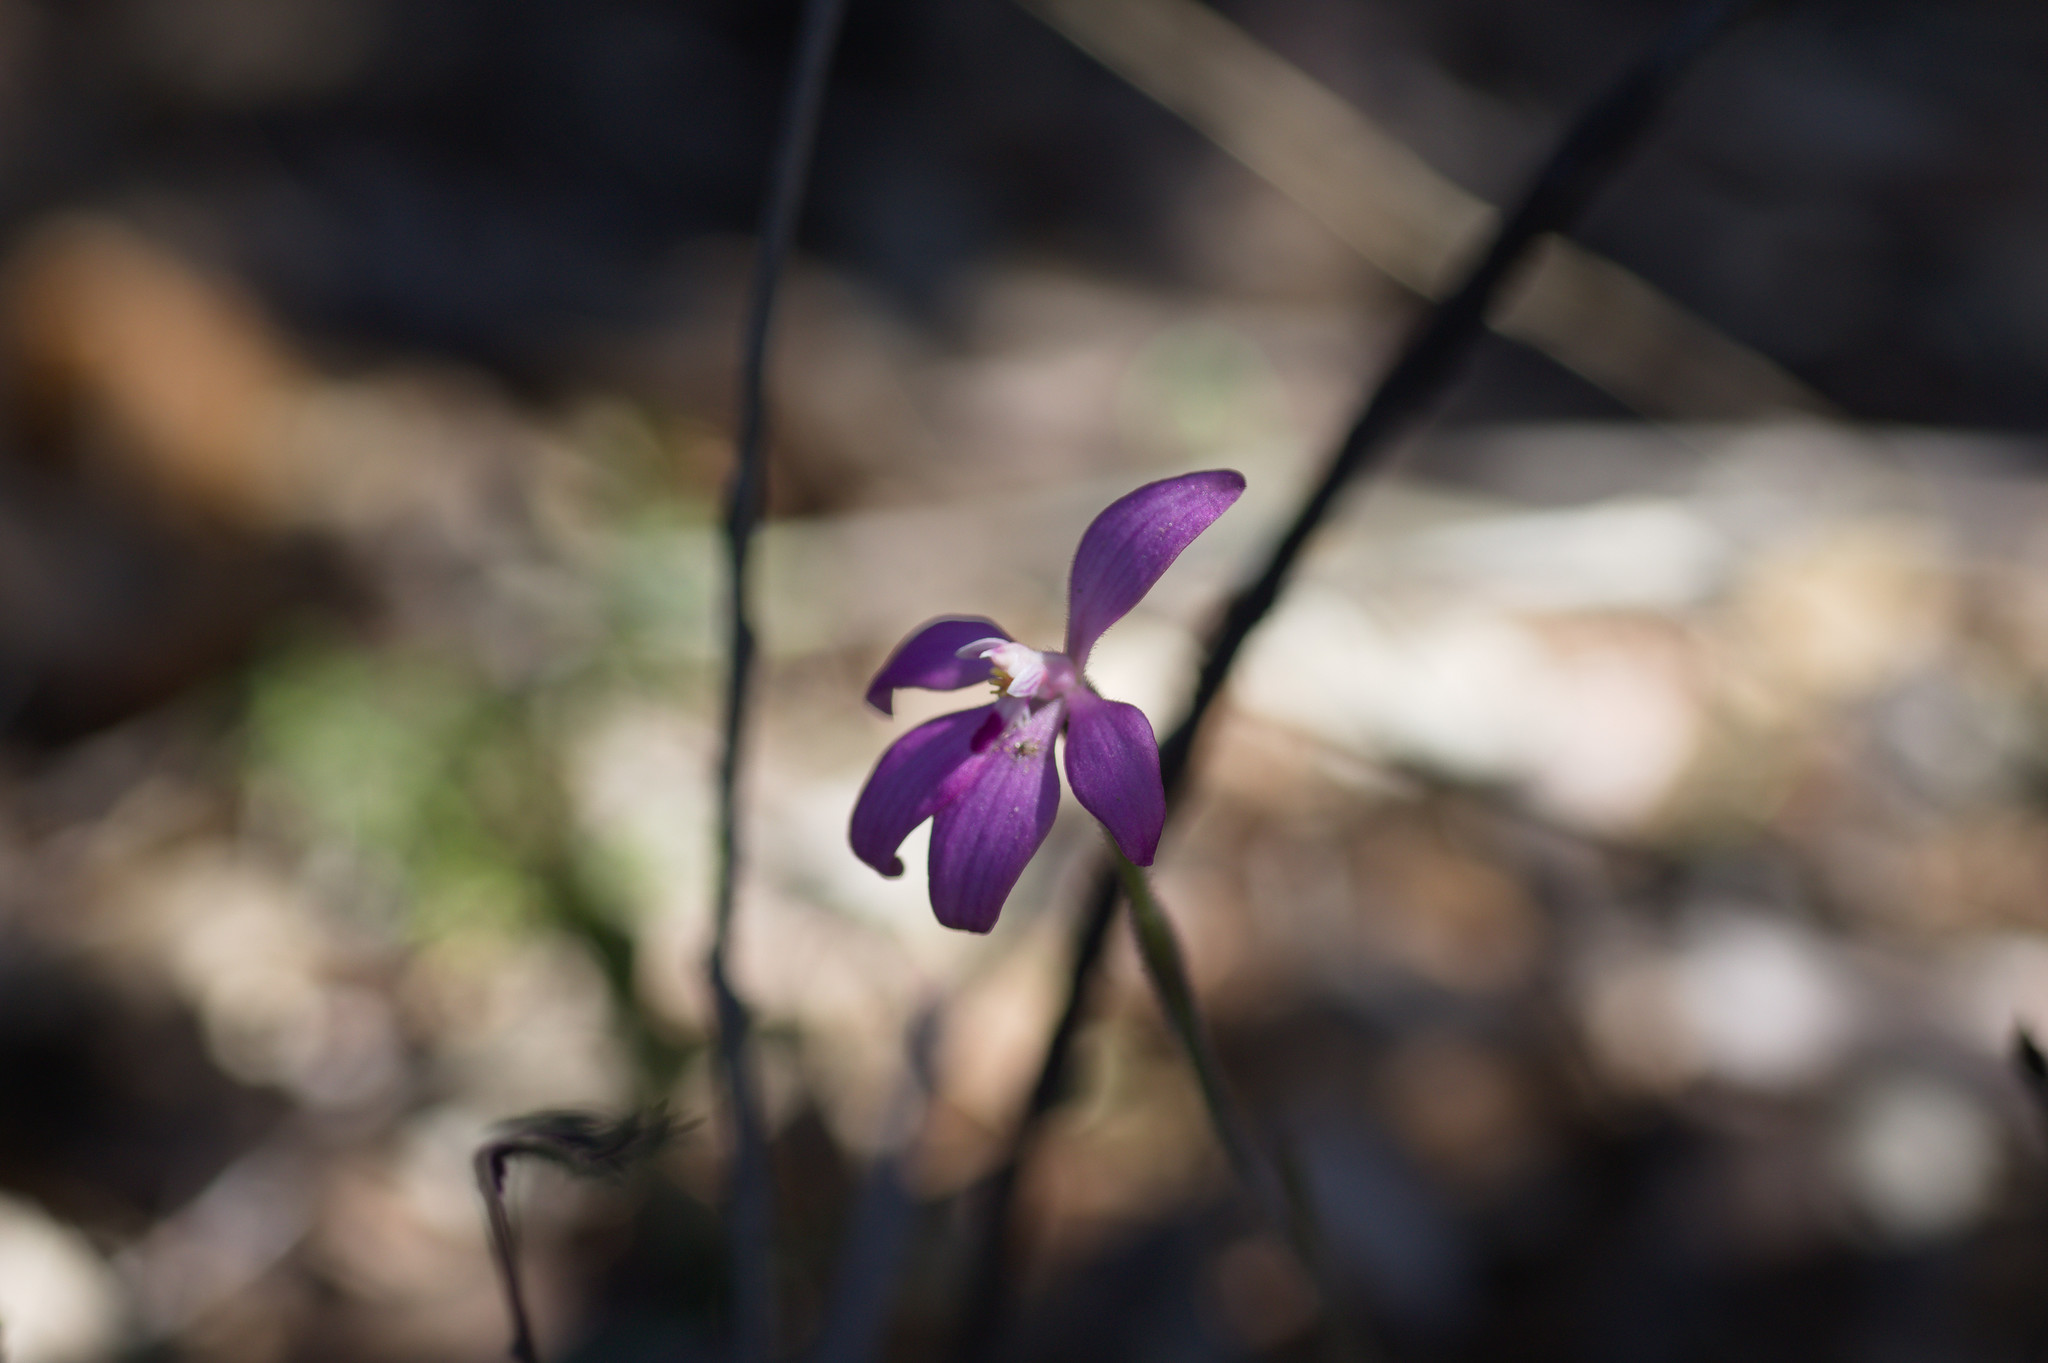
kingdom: Plantae
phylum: Tracheophyta
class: Liliopsida
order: Asparagales
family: Orchidaceae
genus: Caladenia
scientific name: Caladenia reptans
